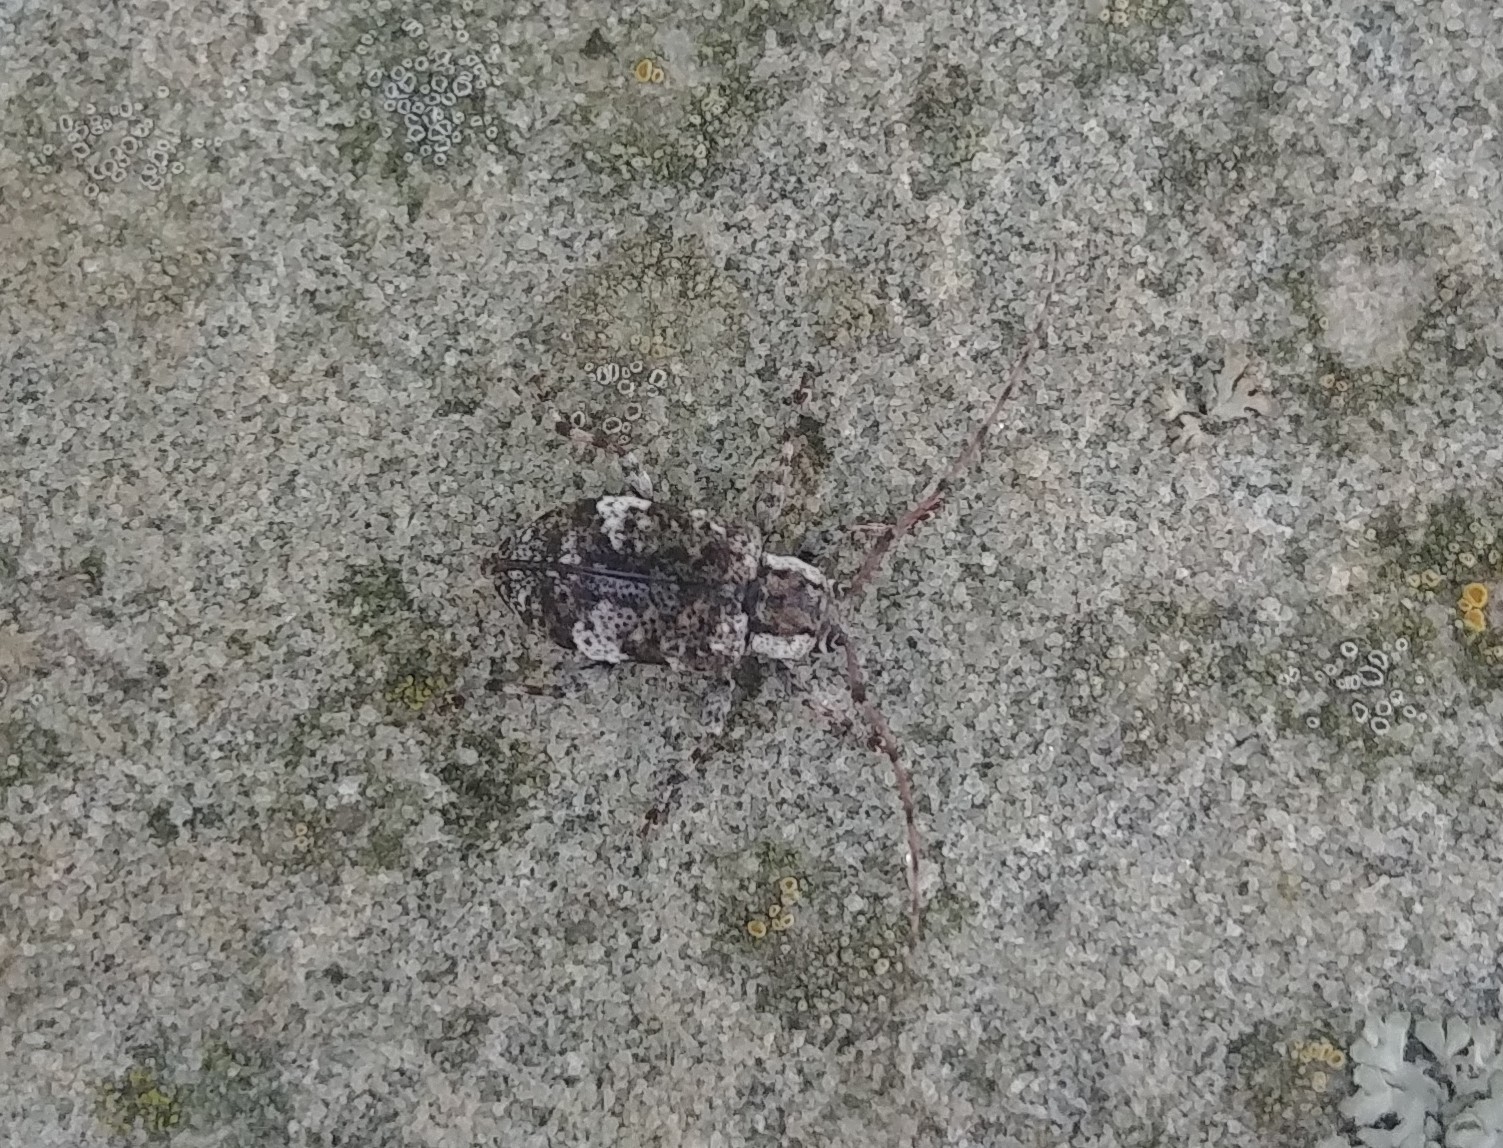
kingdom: Animalia
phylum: Arthropoda
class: Insecta
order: Coleoptera
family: Cerambycidae
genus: Astylopsis
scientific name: Astylopsis macula
